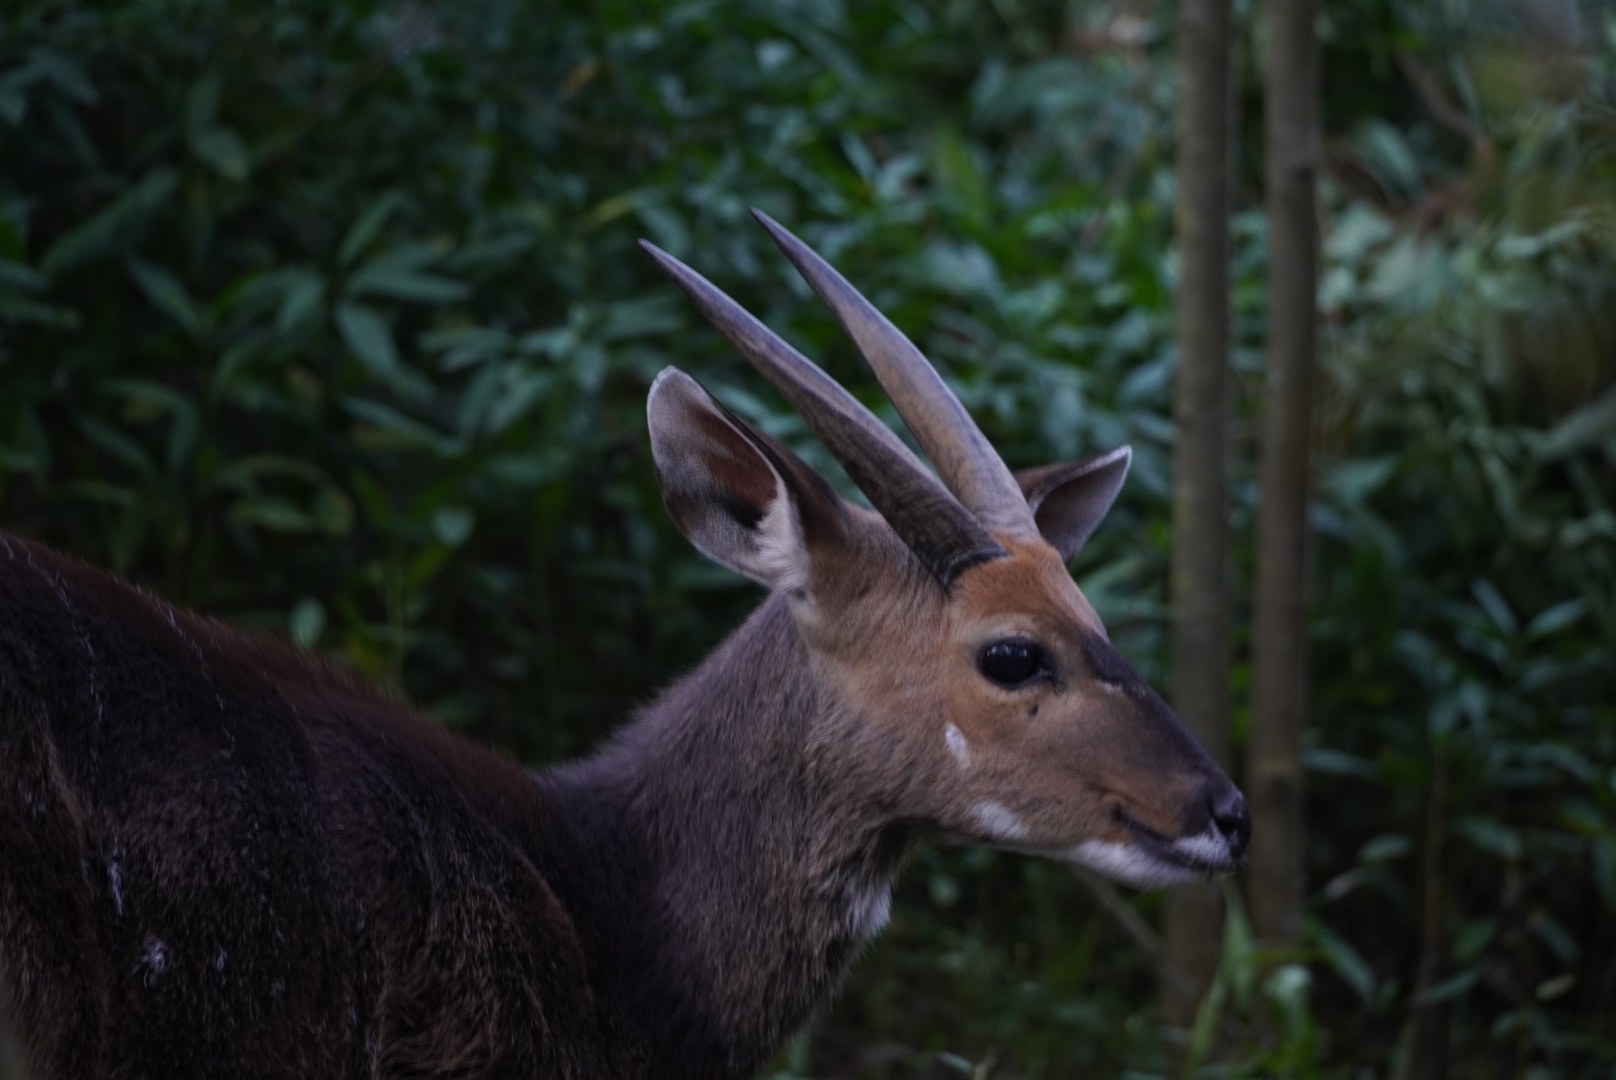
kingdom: Animalia
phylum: Chordata
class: Mammalia
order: Artiodactyla
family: Bovidae
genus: Tragelaphus
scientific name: Tragelaphus scriptus
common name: Bushbuck
